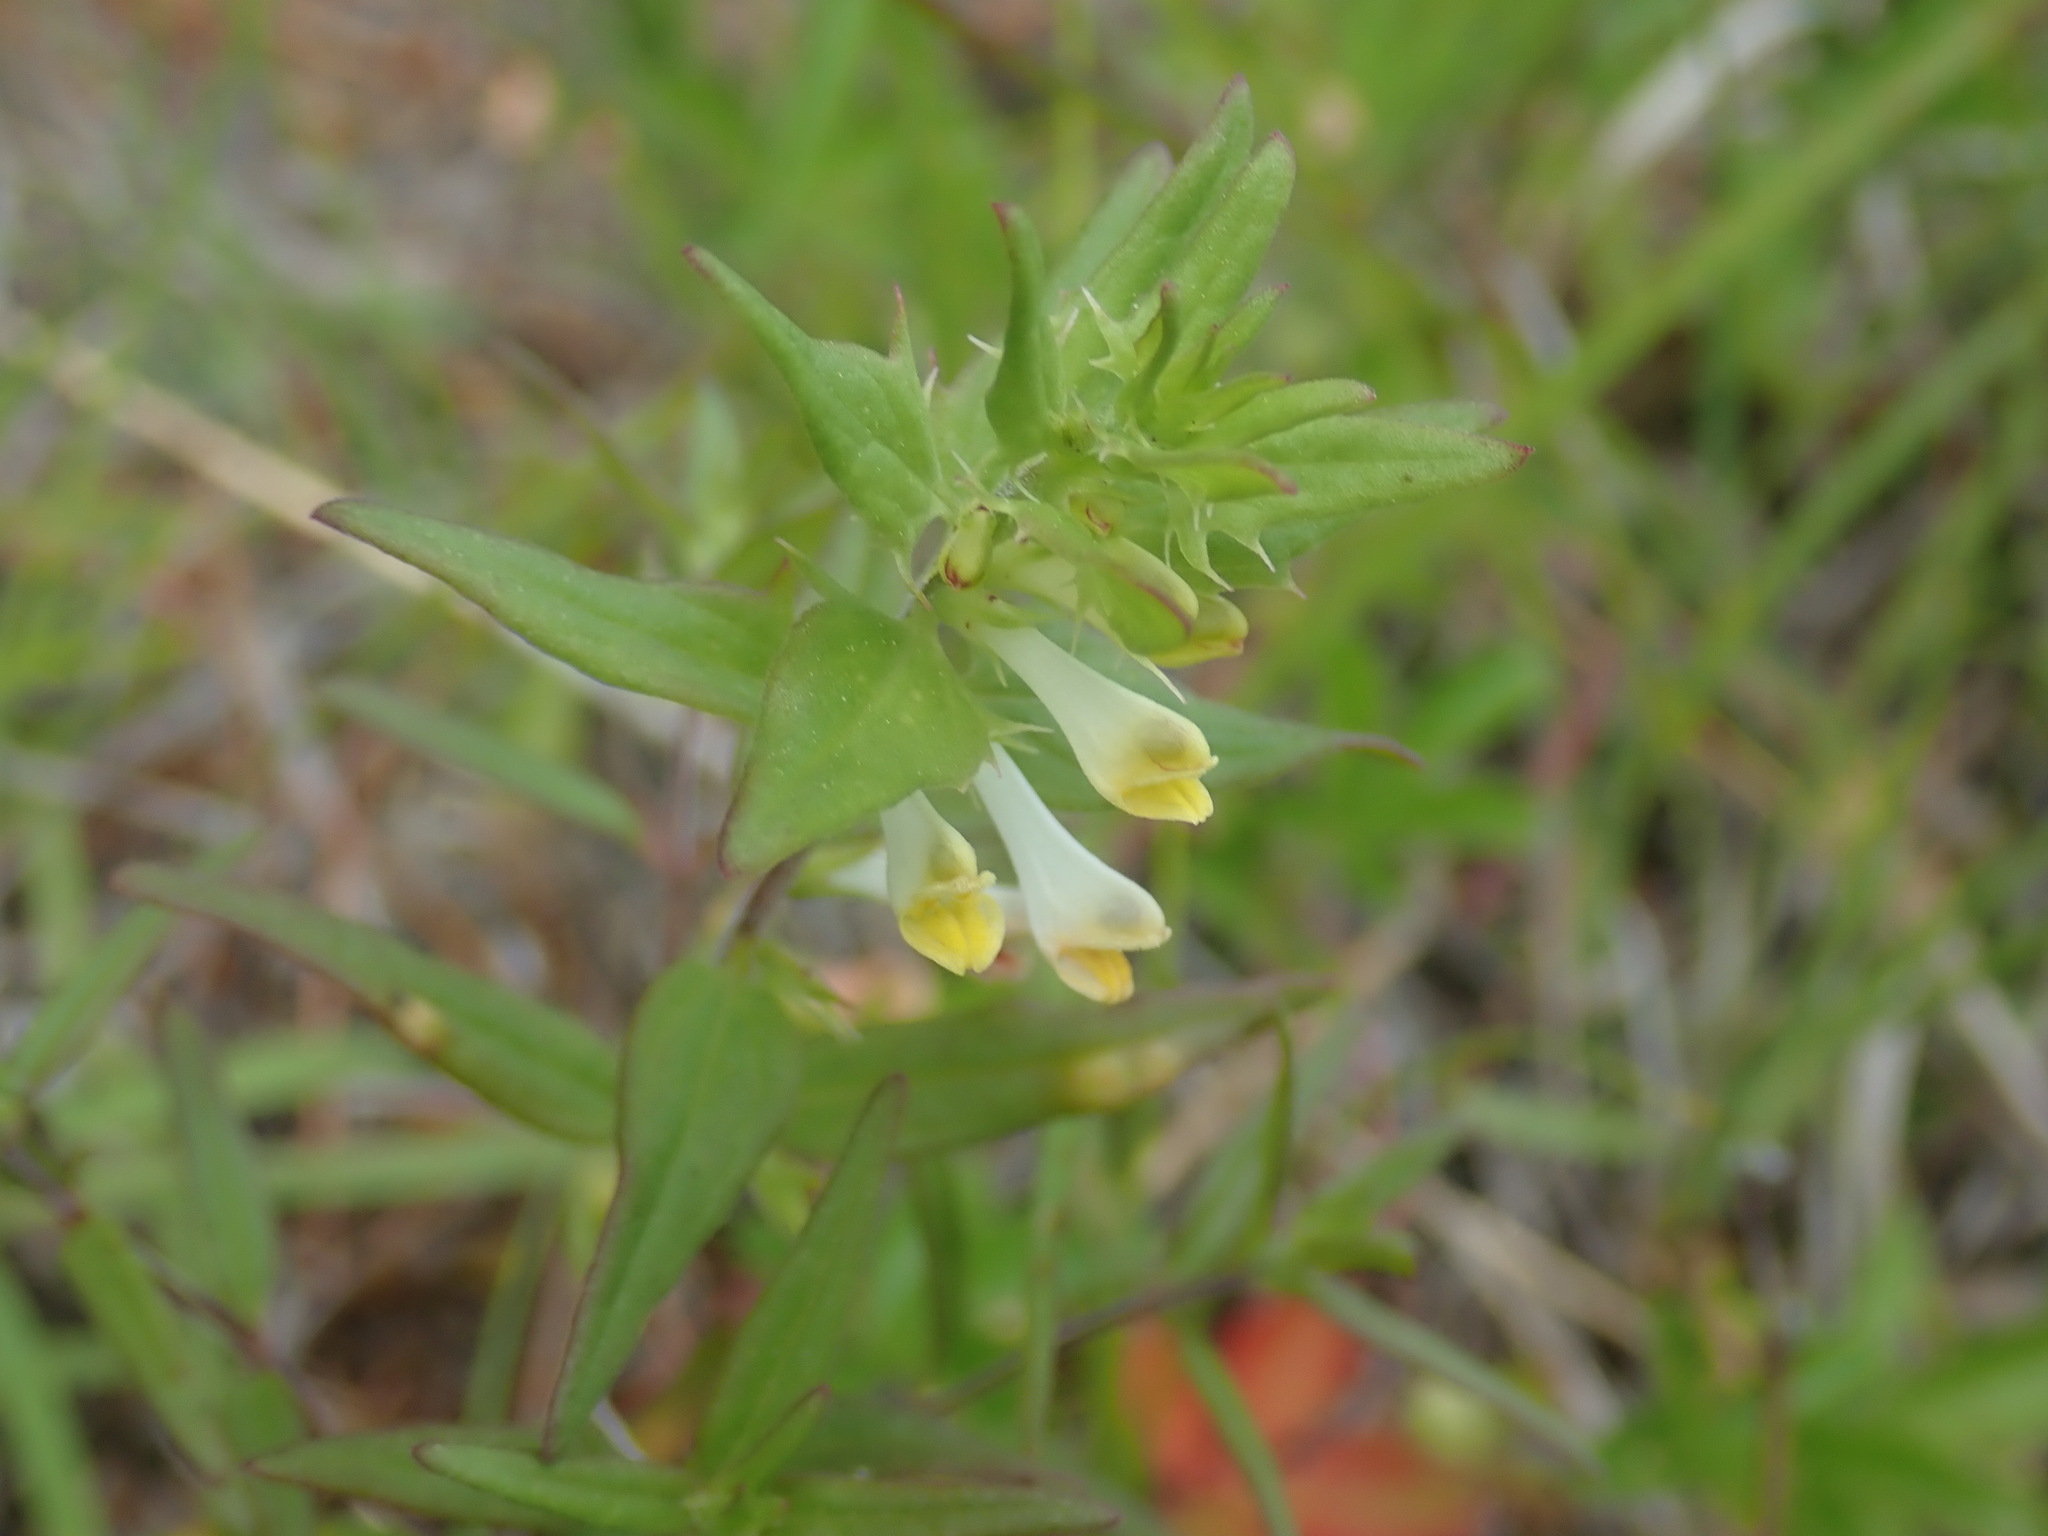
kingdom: Plantae
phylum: Tracheophyta
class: Magnoliopsida
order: Lamiales
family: Orobanchaceae
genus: Melampyrum
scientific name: Melampyrum lineare
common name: American cow-wheat
